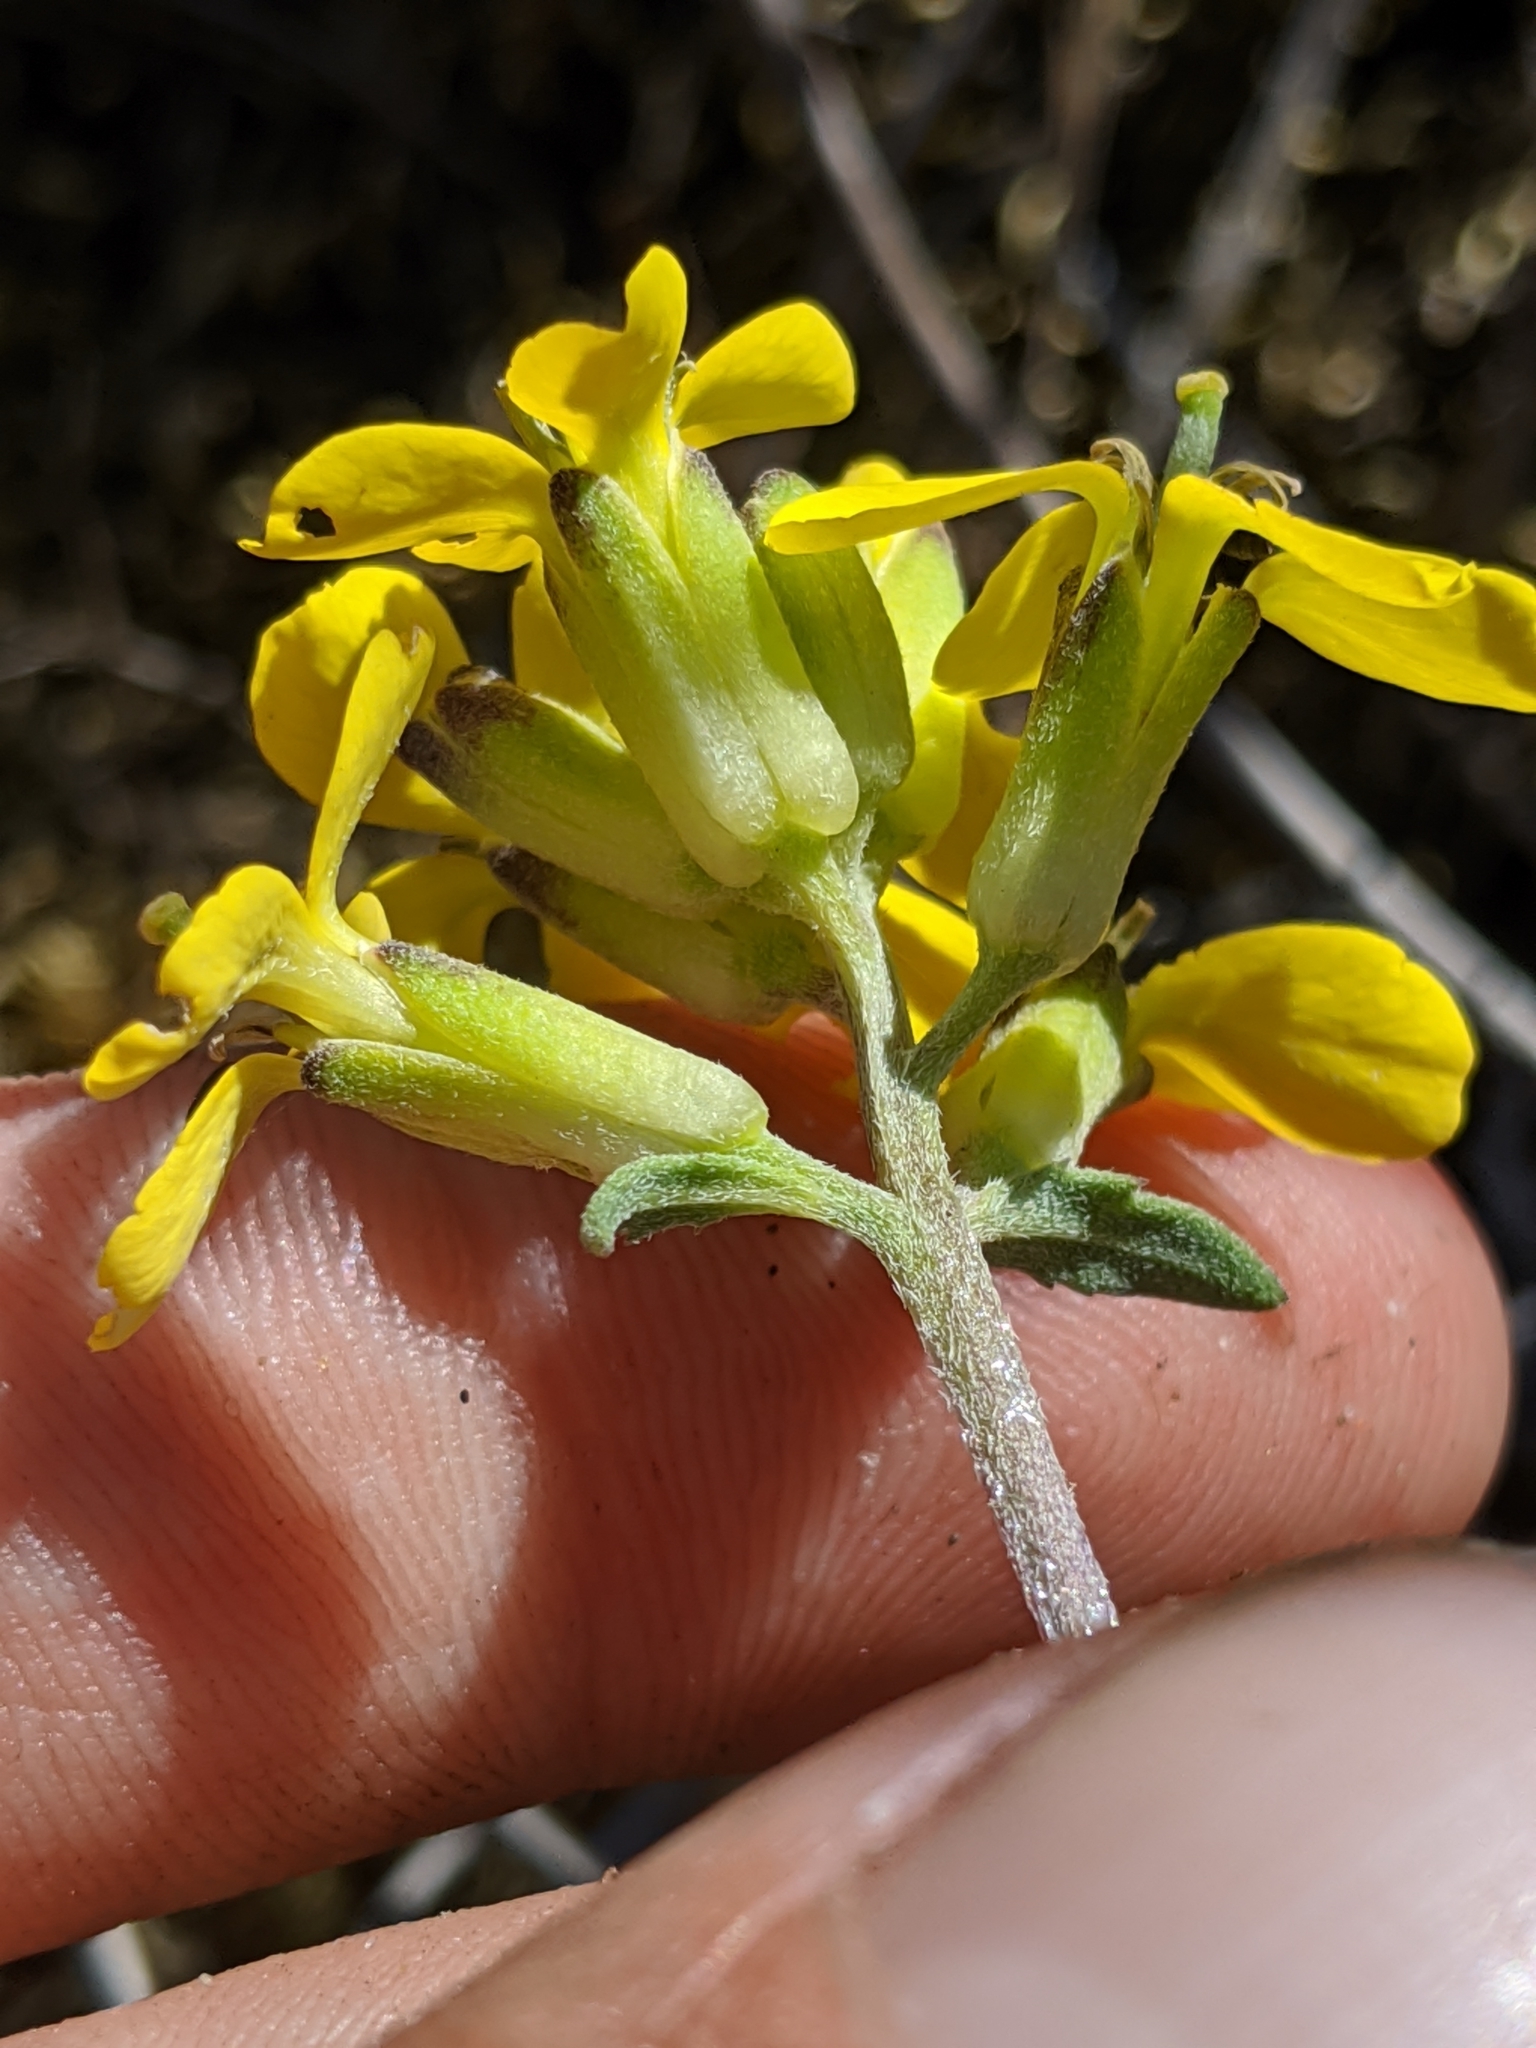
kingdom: Plantae
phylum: Tracheophyta
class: Magnoliopsida
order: Brassicales
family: Brassicaceae
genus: Erysimum
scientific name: Erysimum menziesii
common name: Menzies's wallflower
